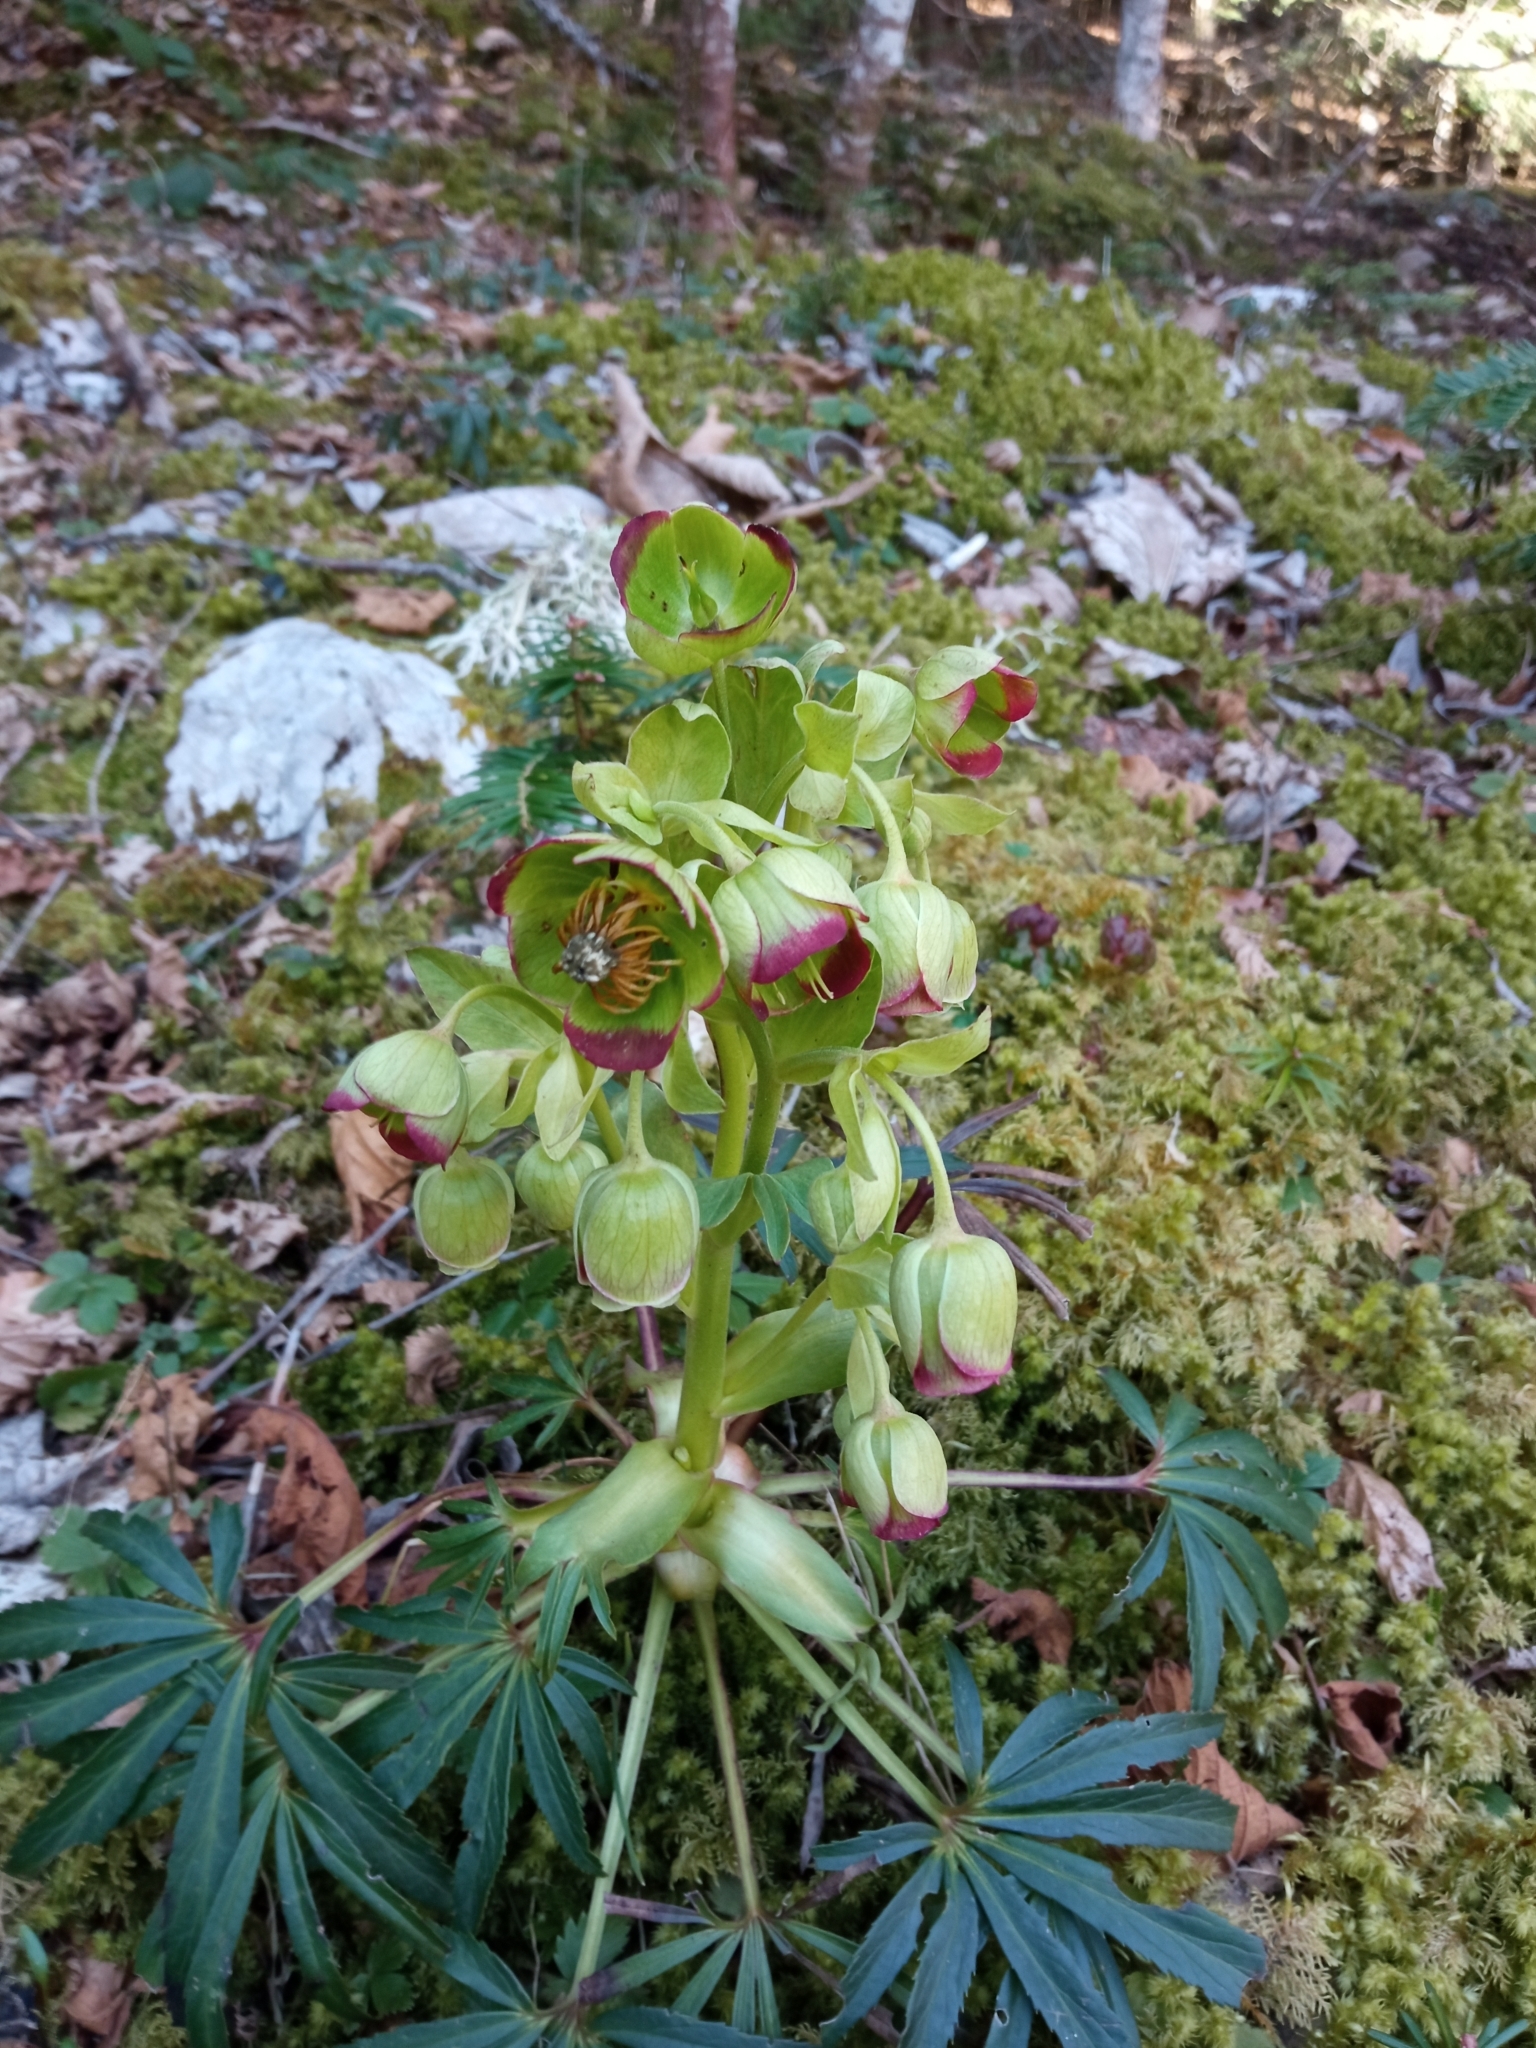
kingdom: Plantae
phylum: Tracheophyta
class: Magnoliopsida
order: Ranunculales
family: Ranunculaceae
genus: Helleborus
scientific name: Helleborus foetidus
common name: Stinking hellebore
